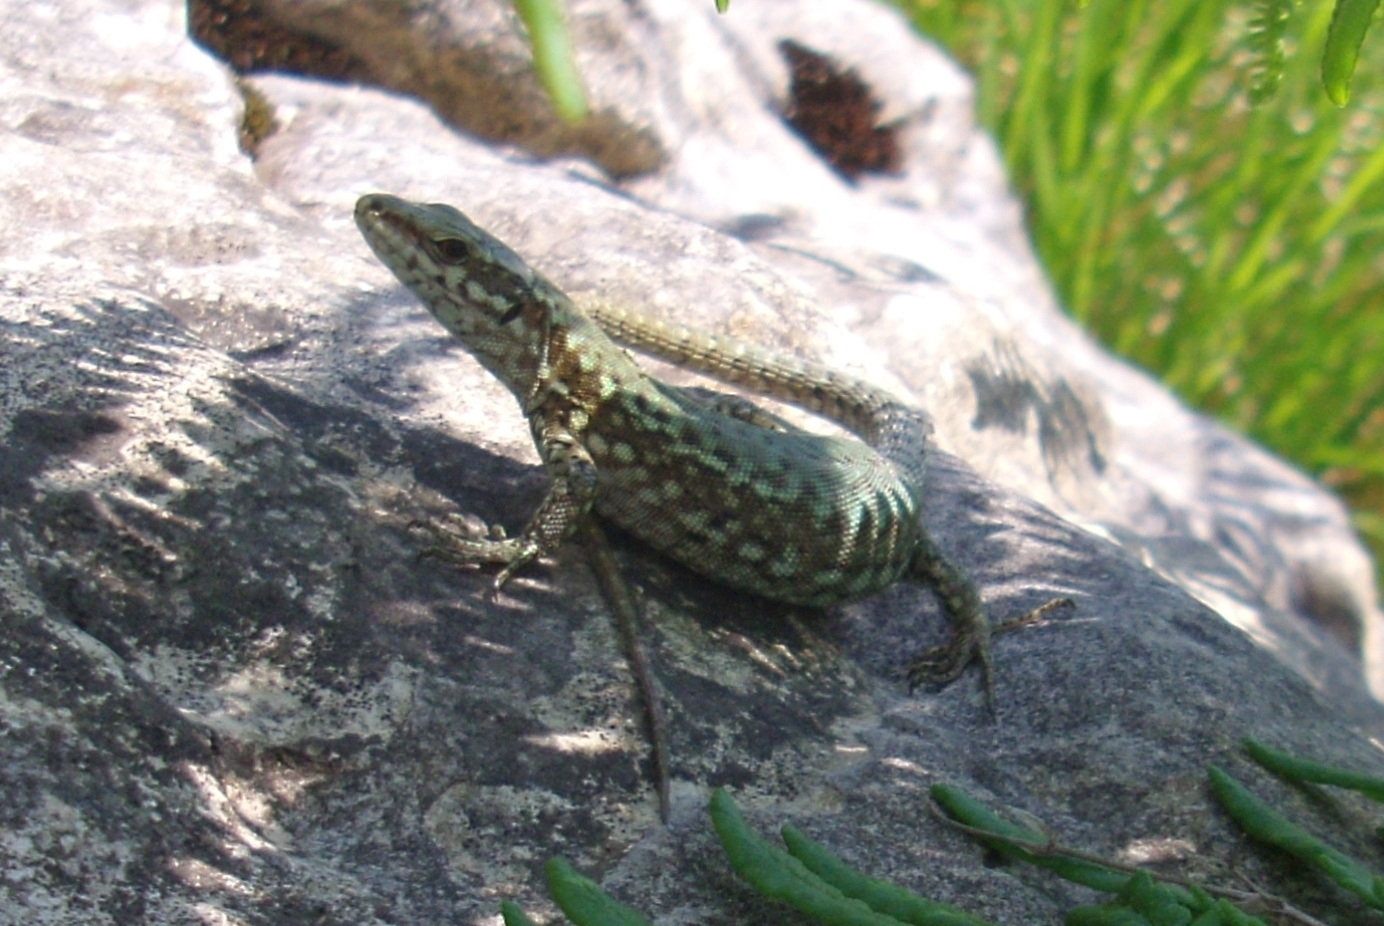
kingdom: Animalia
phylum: Chordata
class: Squamata
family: Lacertidae
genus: Podarcis
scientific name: Podarcis muralis
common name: Common wall lizard
